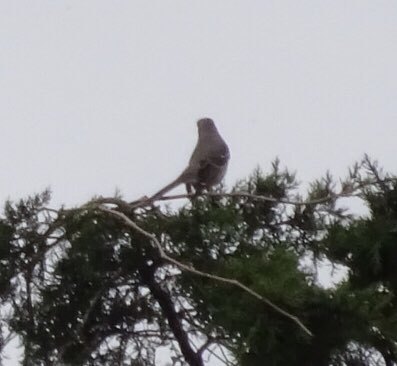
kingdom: Animalia
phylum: Chordata
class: Aves
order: Passeriformes
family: Mimidae
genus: Mimus
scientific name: Mimus polyglottos
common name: Northern mockingbird
